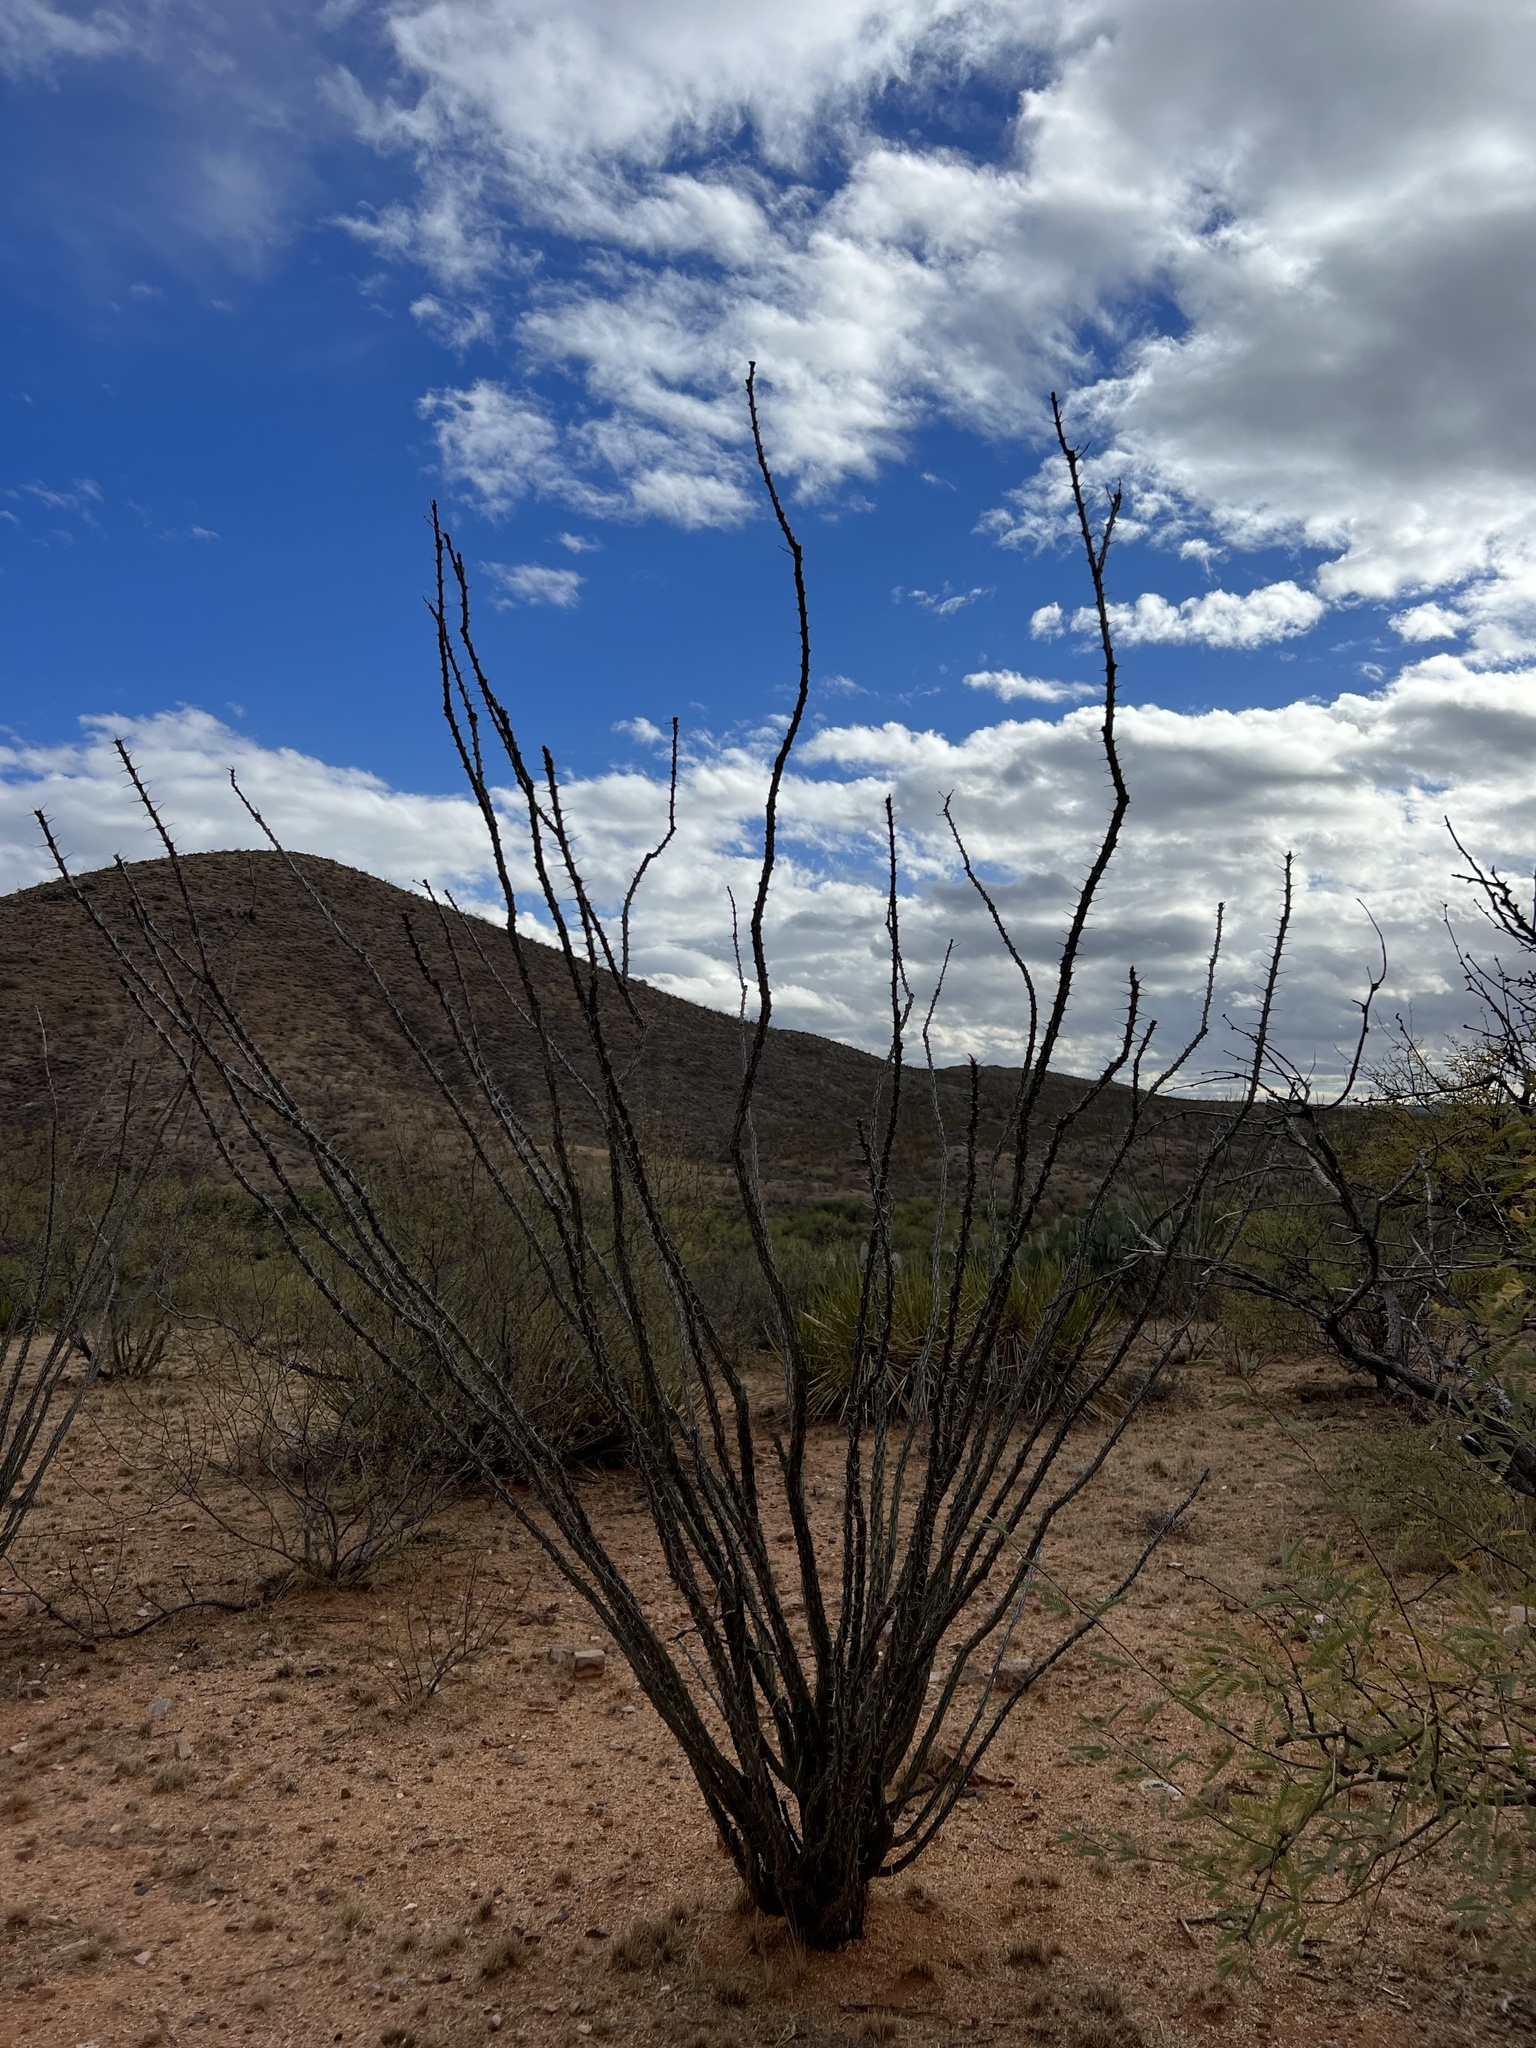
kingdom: Plantae
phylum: Tracheophyta
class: Magnoliopsida
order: Ericales
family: Fouquieriaceae
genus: Fouquieria
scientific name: Fouquieria splendens
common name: Vine-cactus
